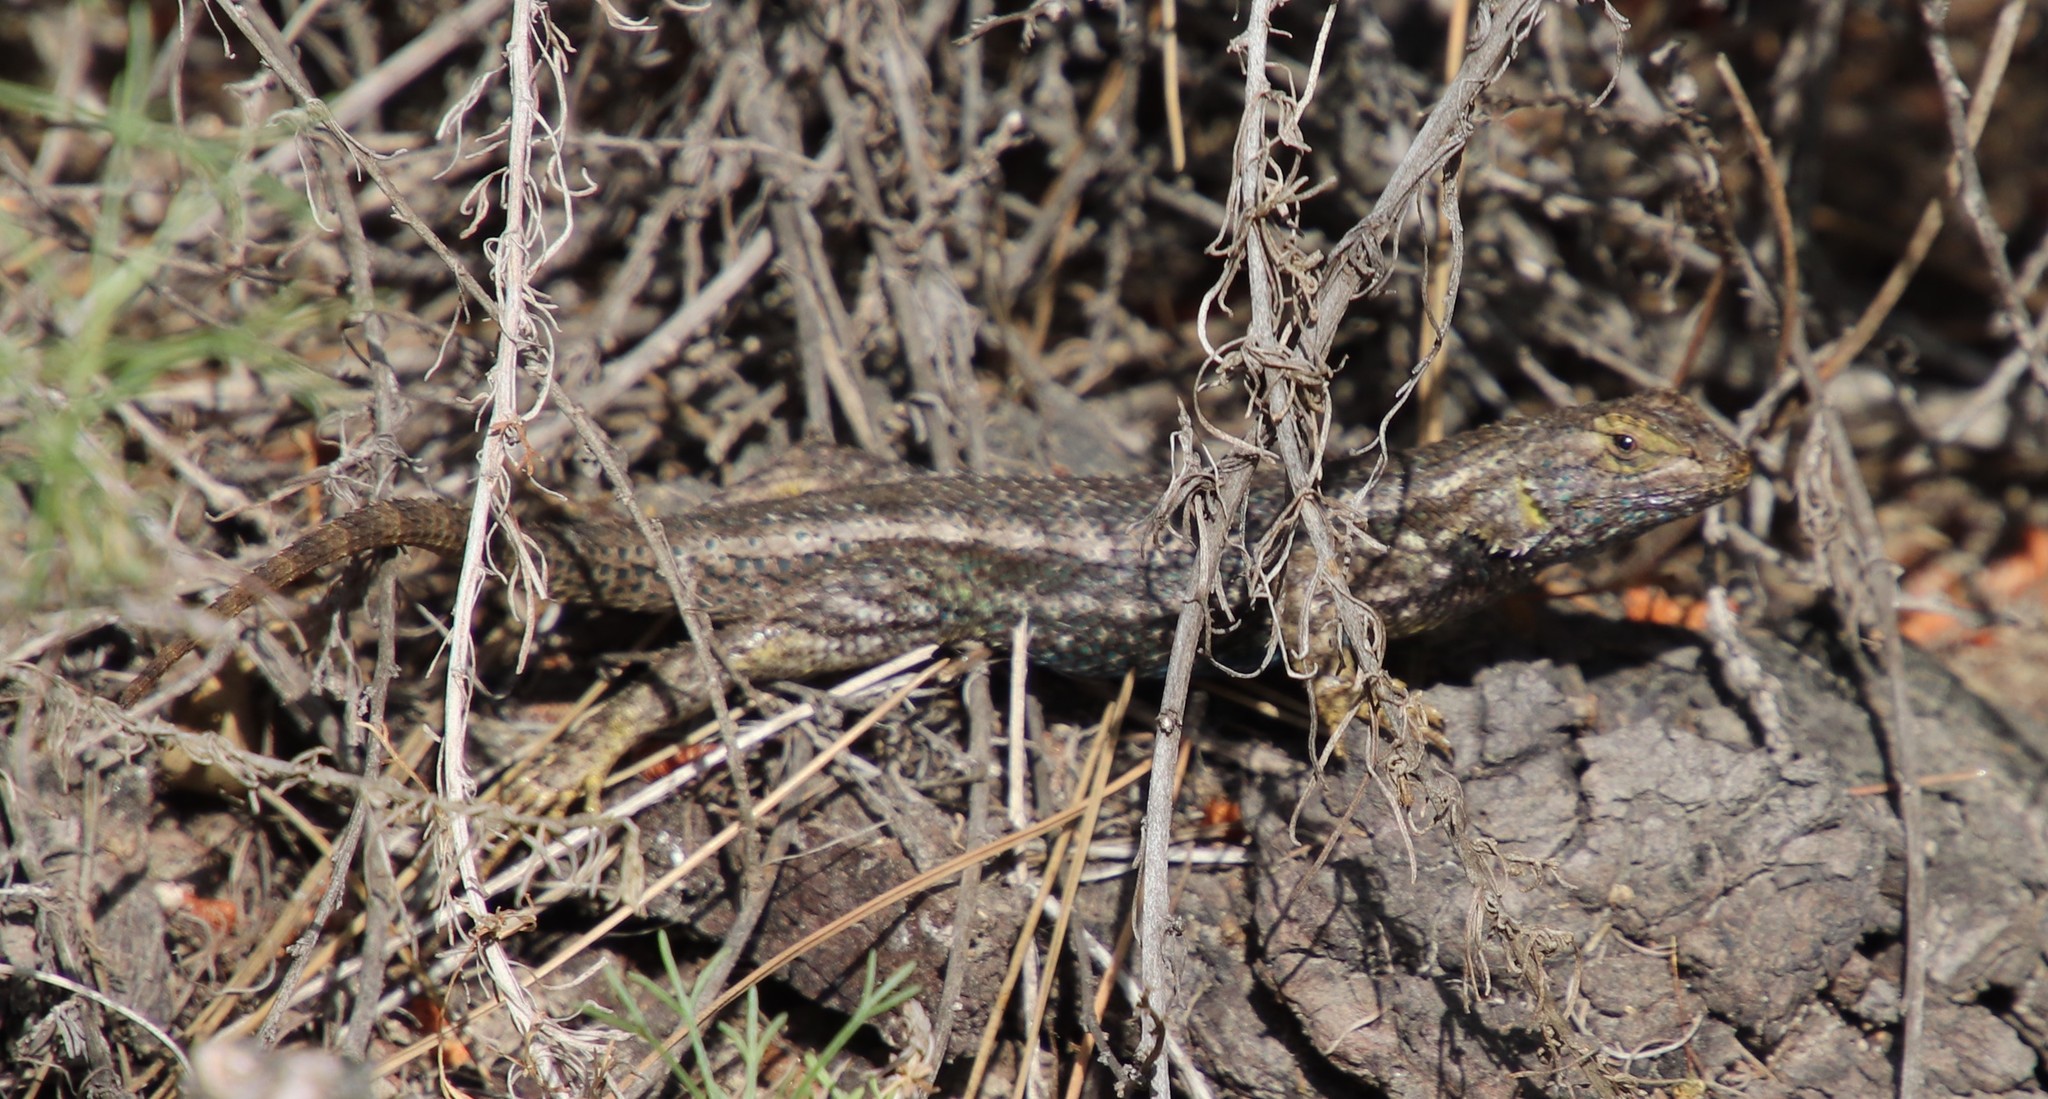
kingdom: Animalia
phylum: Chordata
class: Squamata
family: Phrynosomatidae
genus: Sceloporus
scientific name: Sceloporus occidentalis
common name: Western fence lizard
